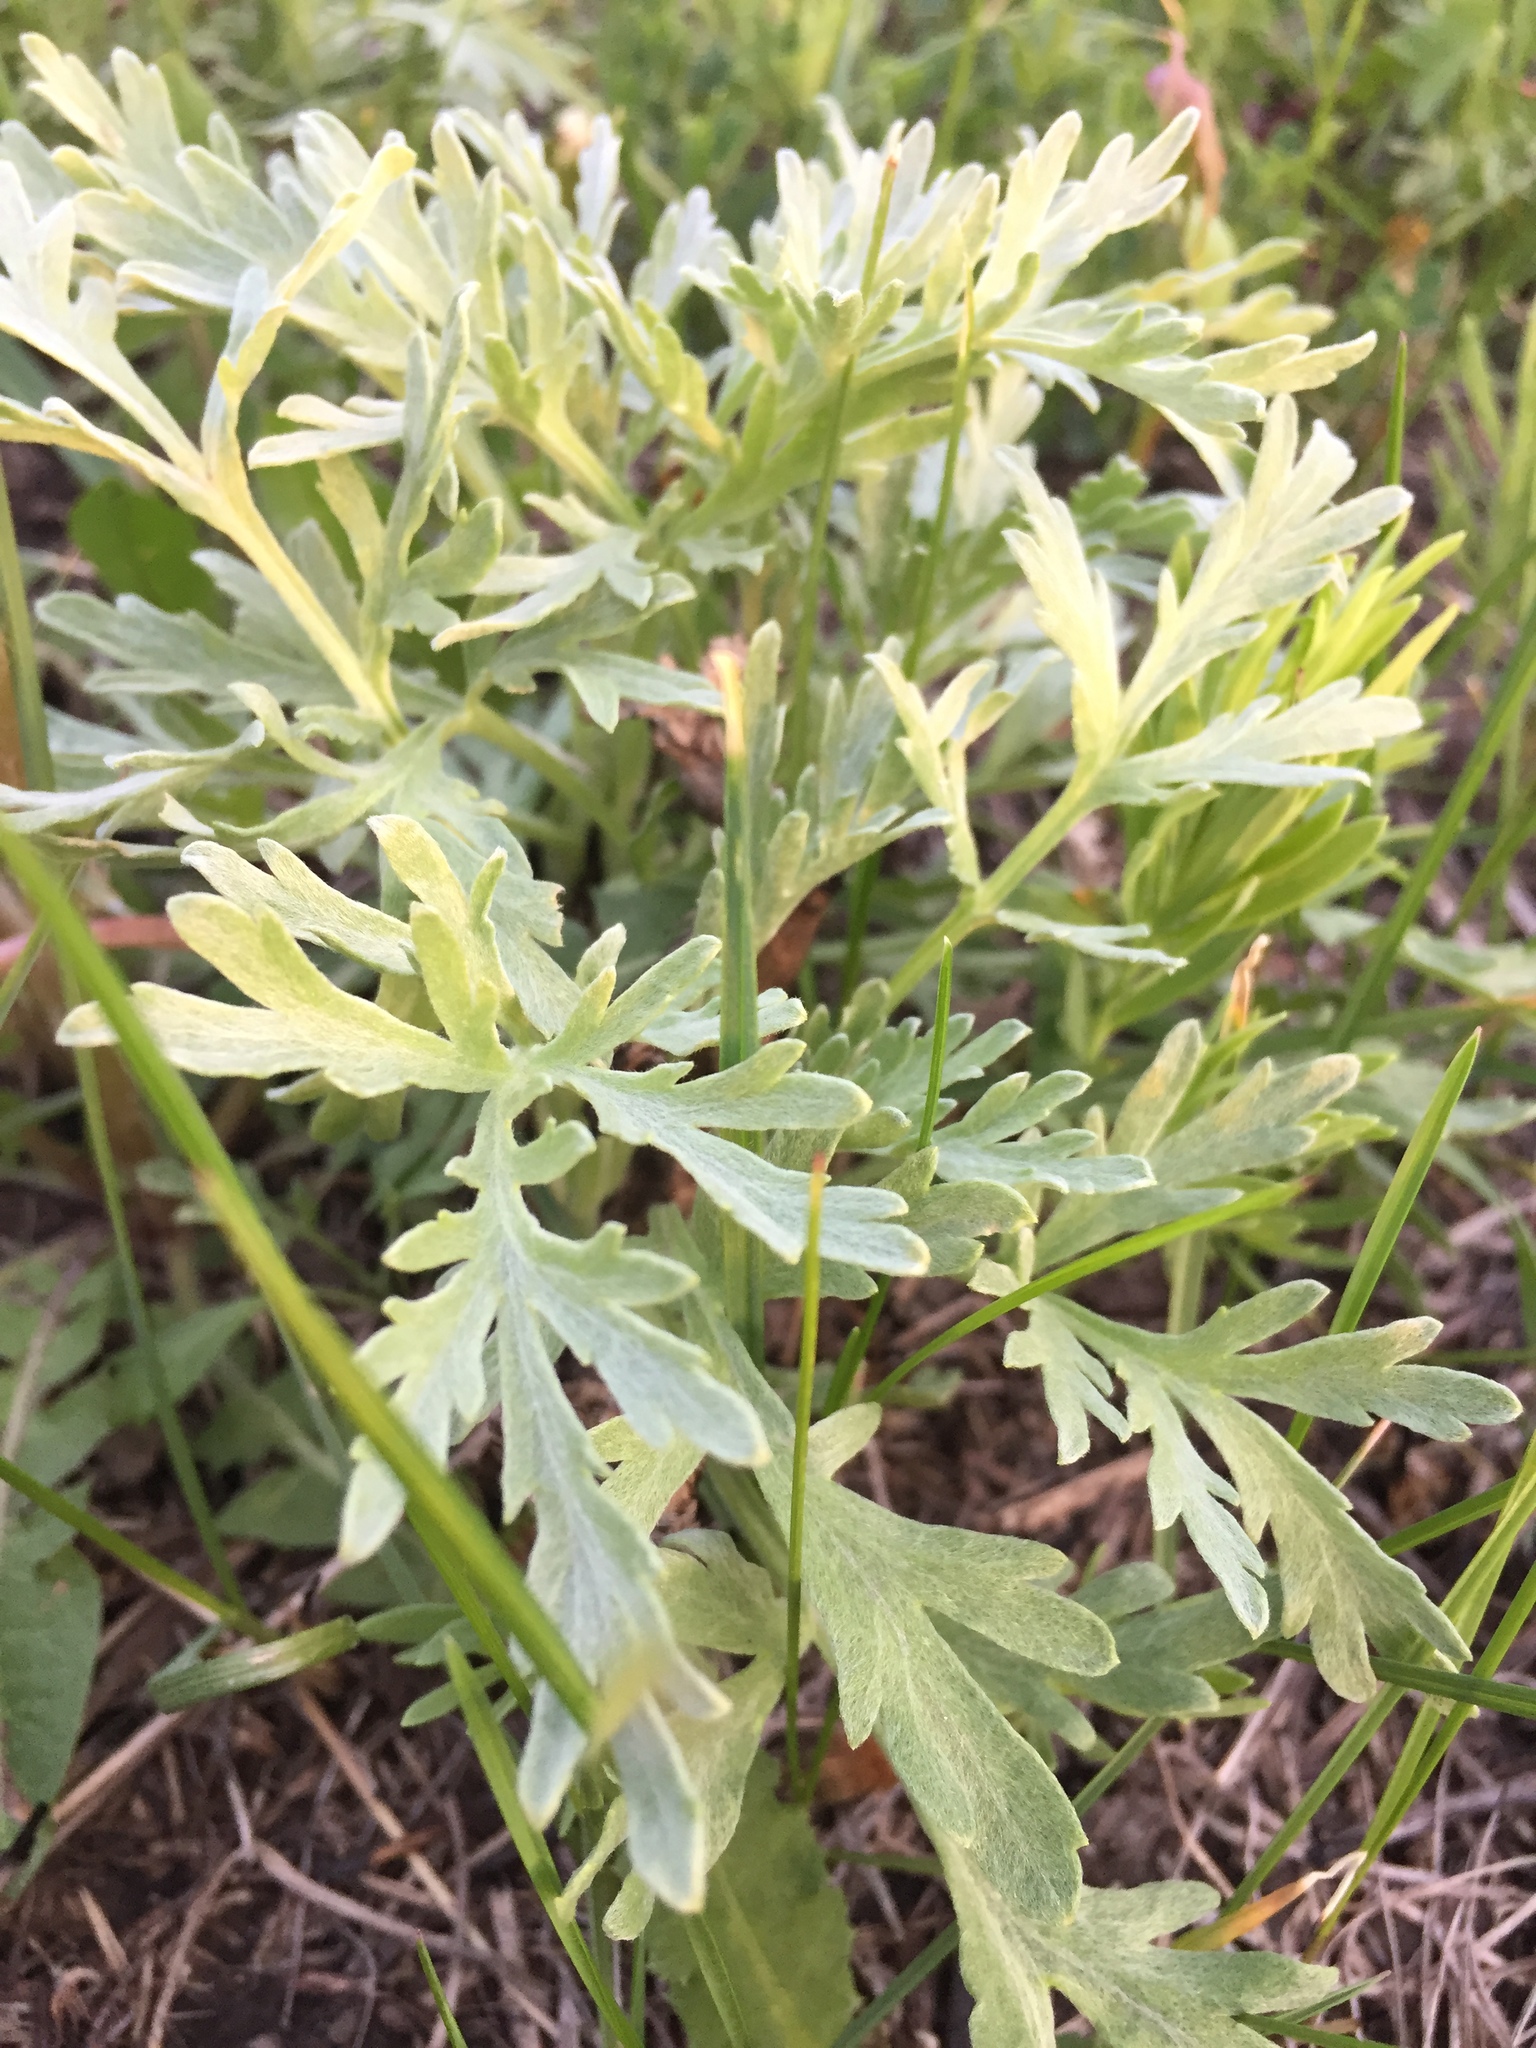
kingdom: Plantae
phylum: Tracheophyta
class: Magnoliopsida
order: Asterales
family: Asteraceae
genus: Artemisia
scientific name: Artemisia absinthium
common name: Wormwood
